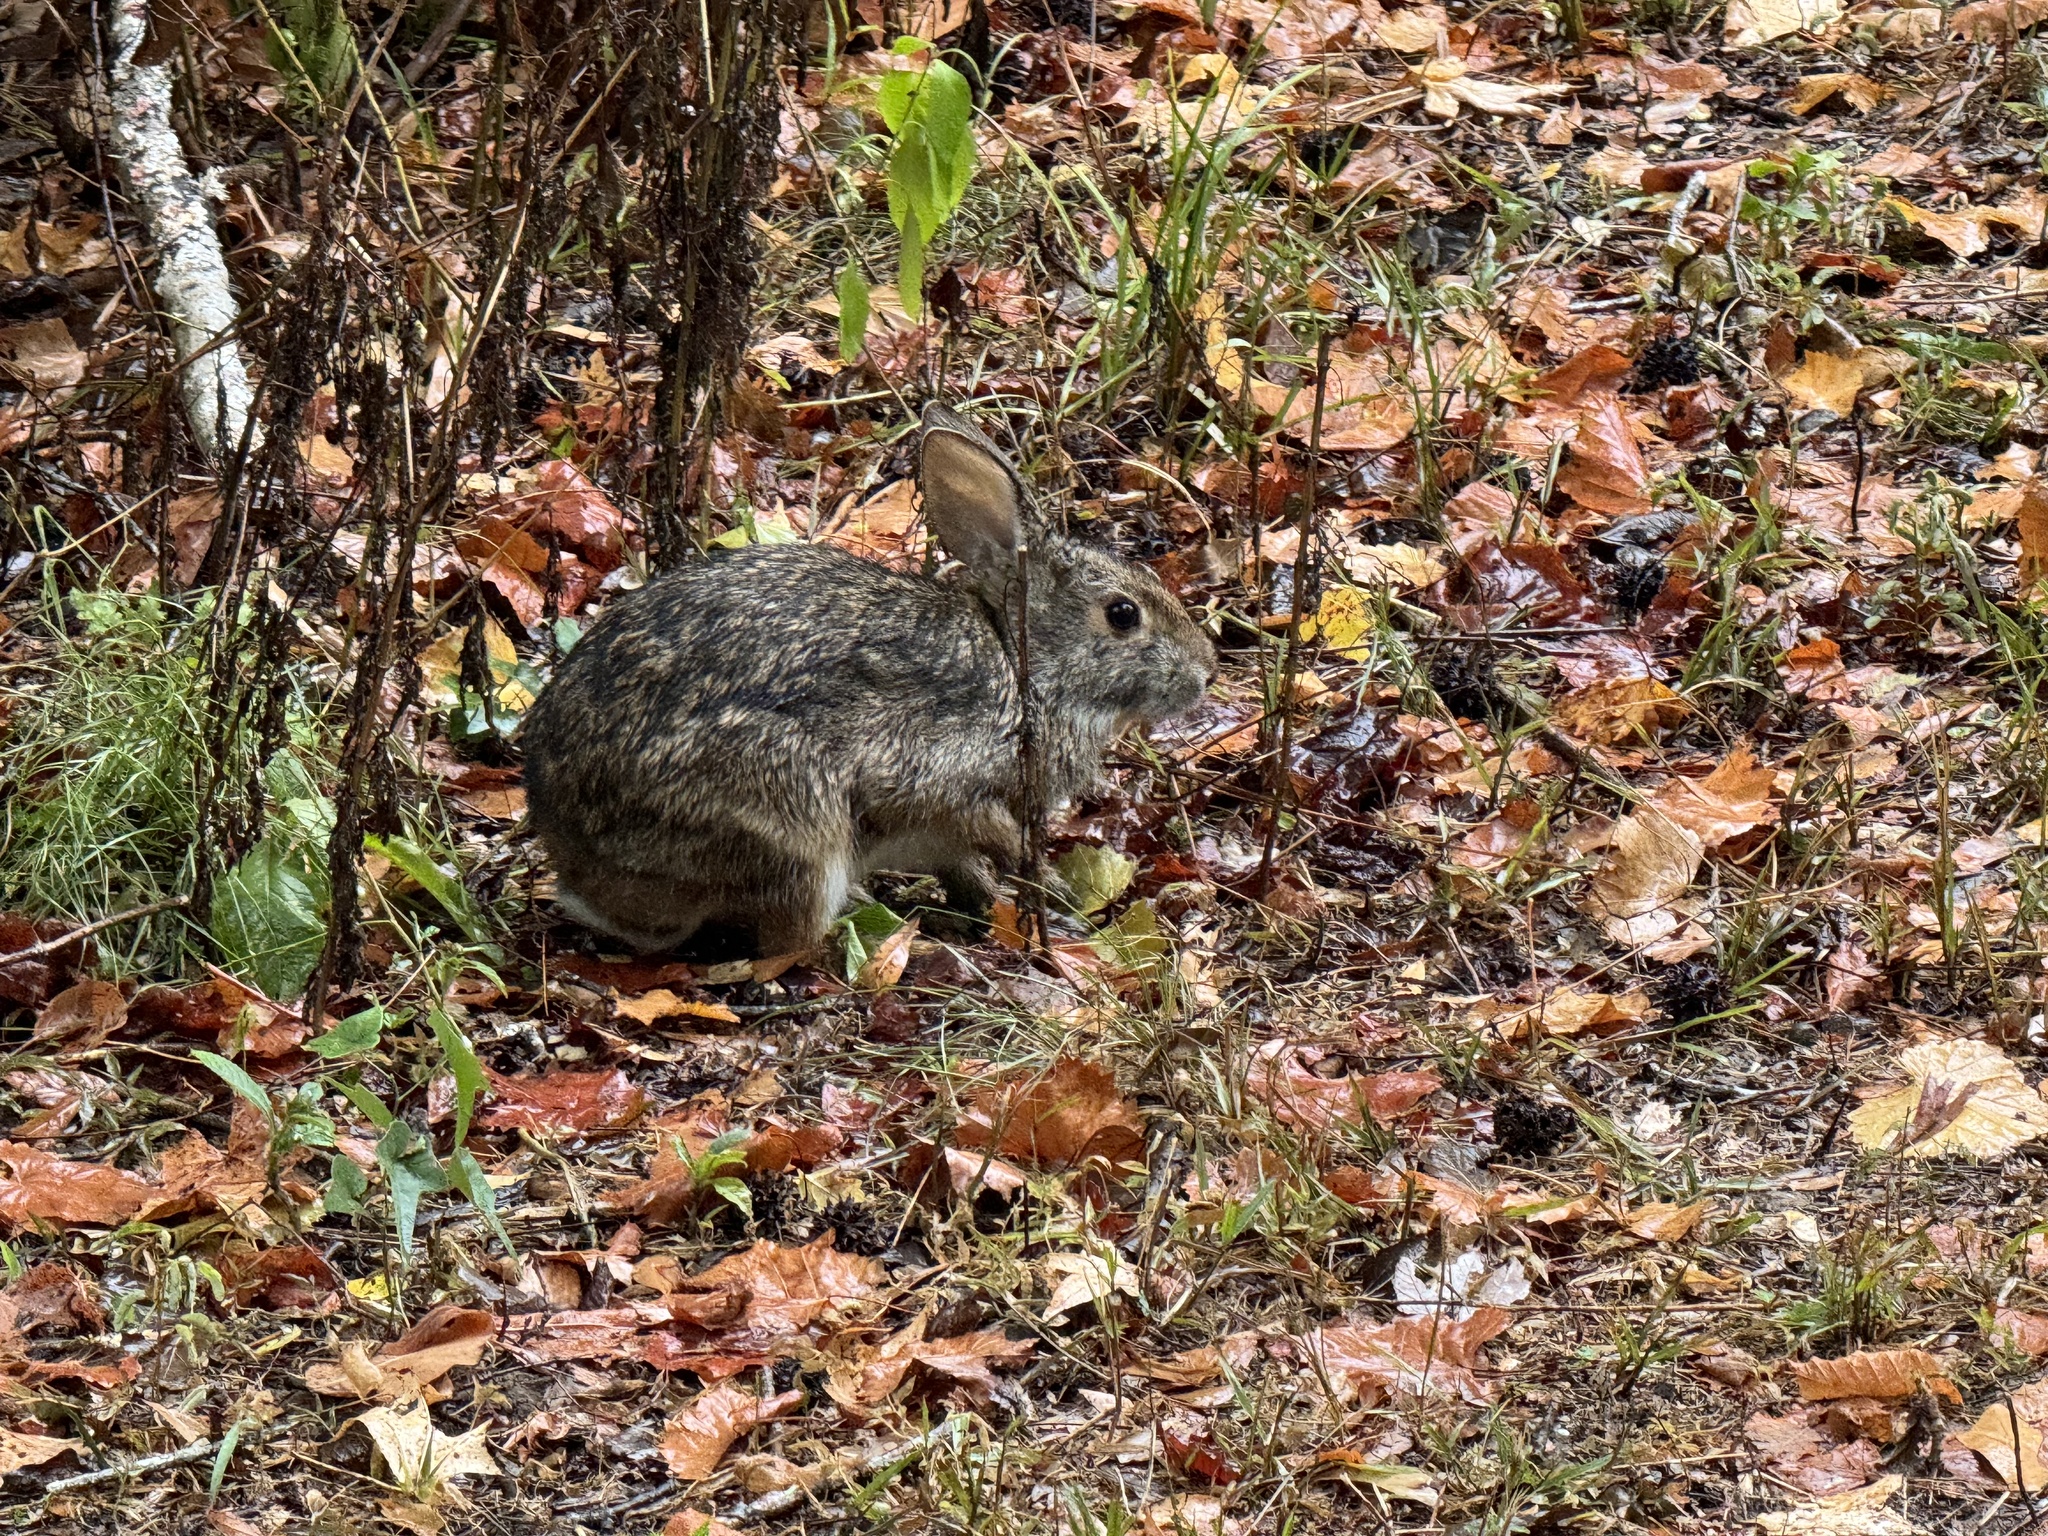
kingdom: Animalia
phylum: Chordata
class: Mammalia
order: Lagomorpha
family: Leporidae
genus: Sylvilagus
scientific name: Sylvilagus aquaticus
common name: Swamp rabbit
